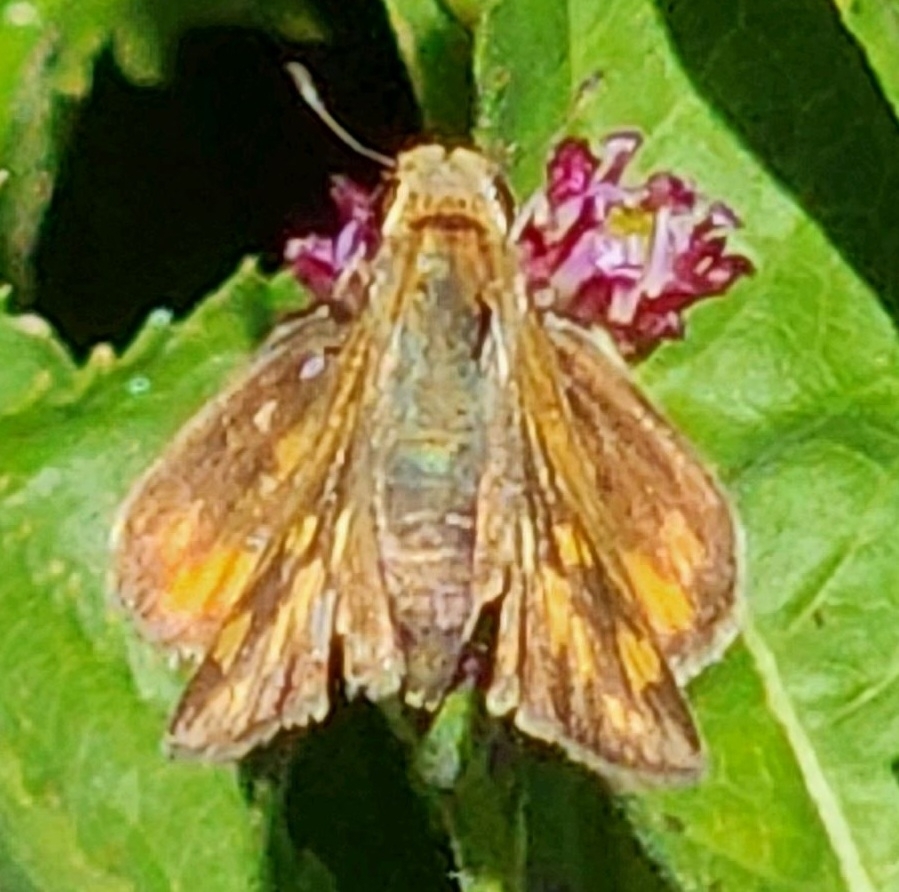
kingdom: Animalia
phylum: Arthropoda
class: Insecta
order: Lepidoptera
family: Hesperiidae
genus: Hylephila
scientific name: Hylephila phyleus
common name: Fiery skipper
